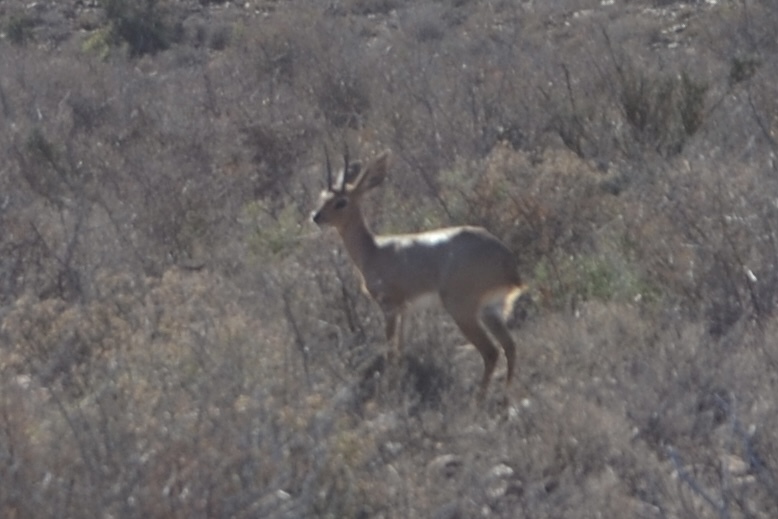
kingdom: Animalia
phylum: Chordata
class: Mammalia
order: Artiodactyla
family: Bovidae
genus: Raphicerus
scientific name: Raphicerus campestris
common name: Steenbok
